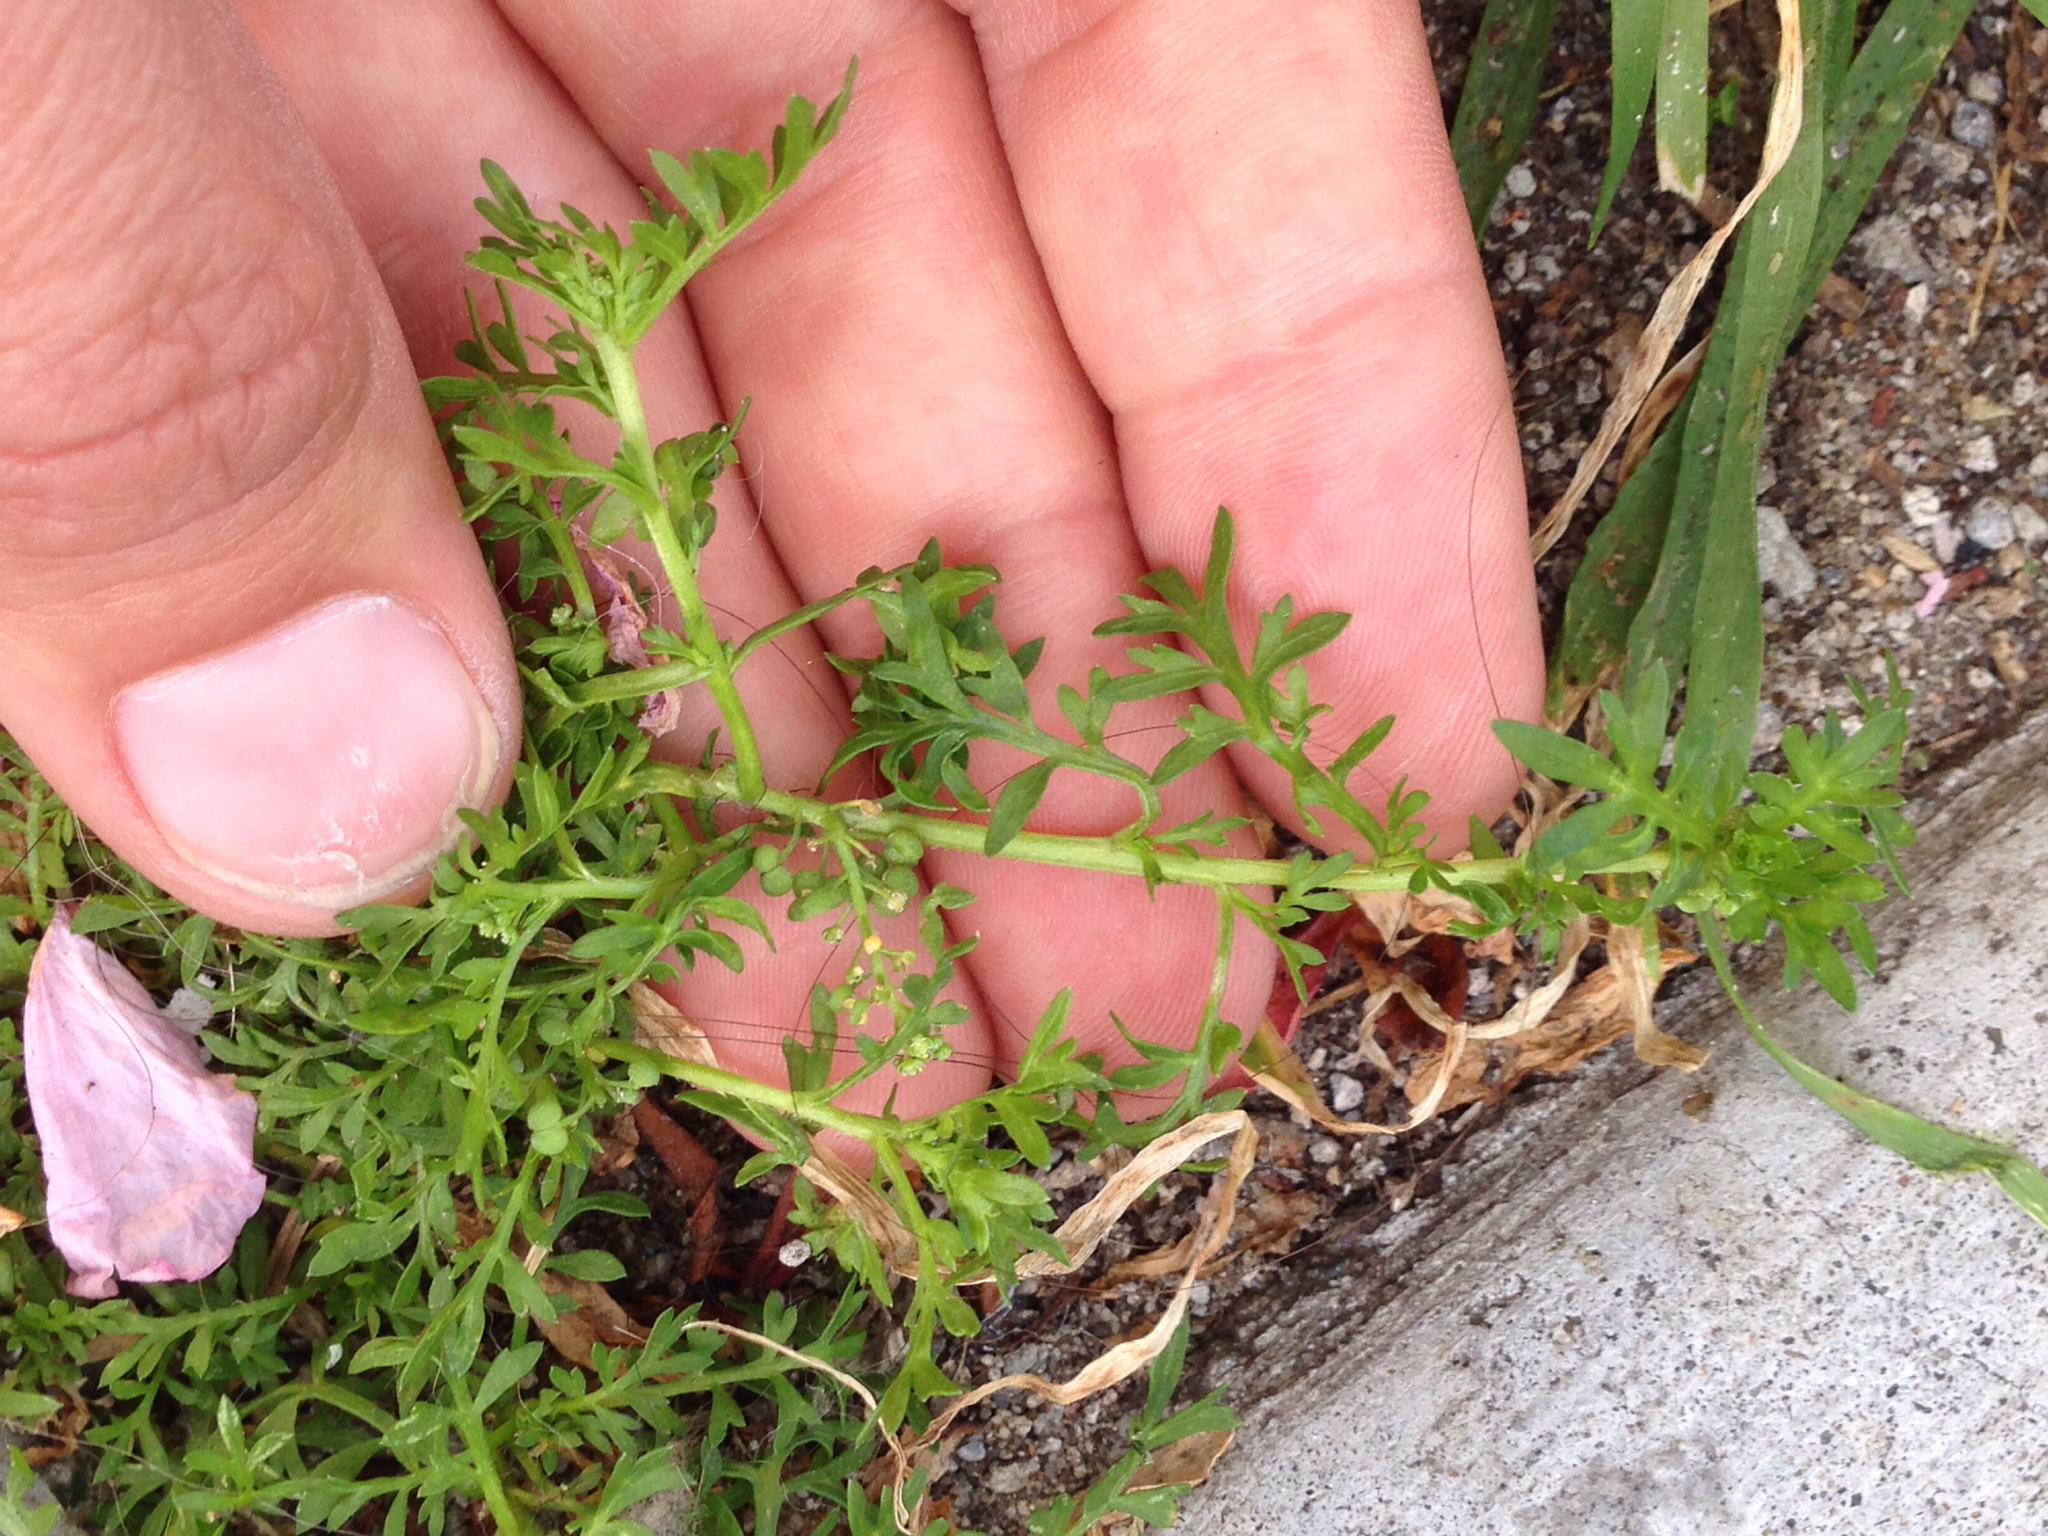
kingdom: Plantae
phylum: Tracheophyta
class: Magnoliopsida
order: Brassicales
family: Brassicaceae
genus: Lepidium
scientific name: Lepidium didymum
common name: Lesser swinecress
